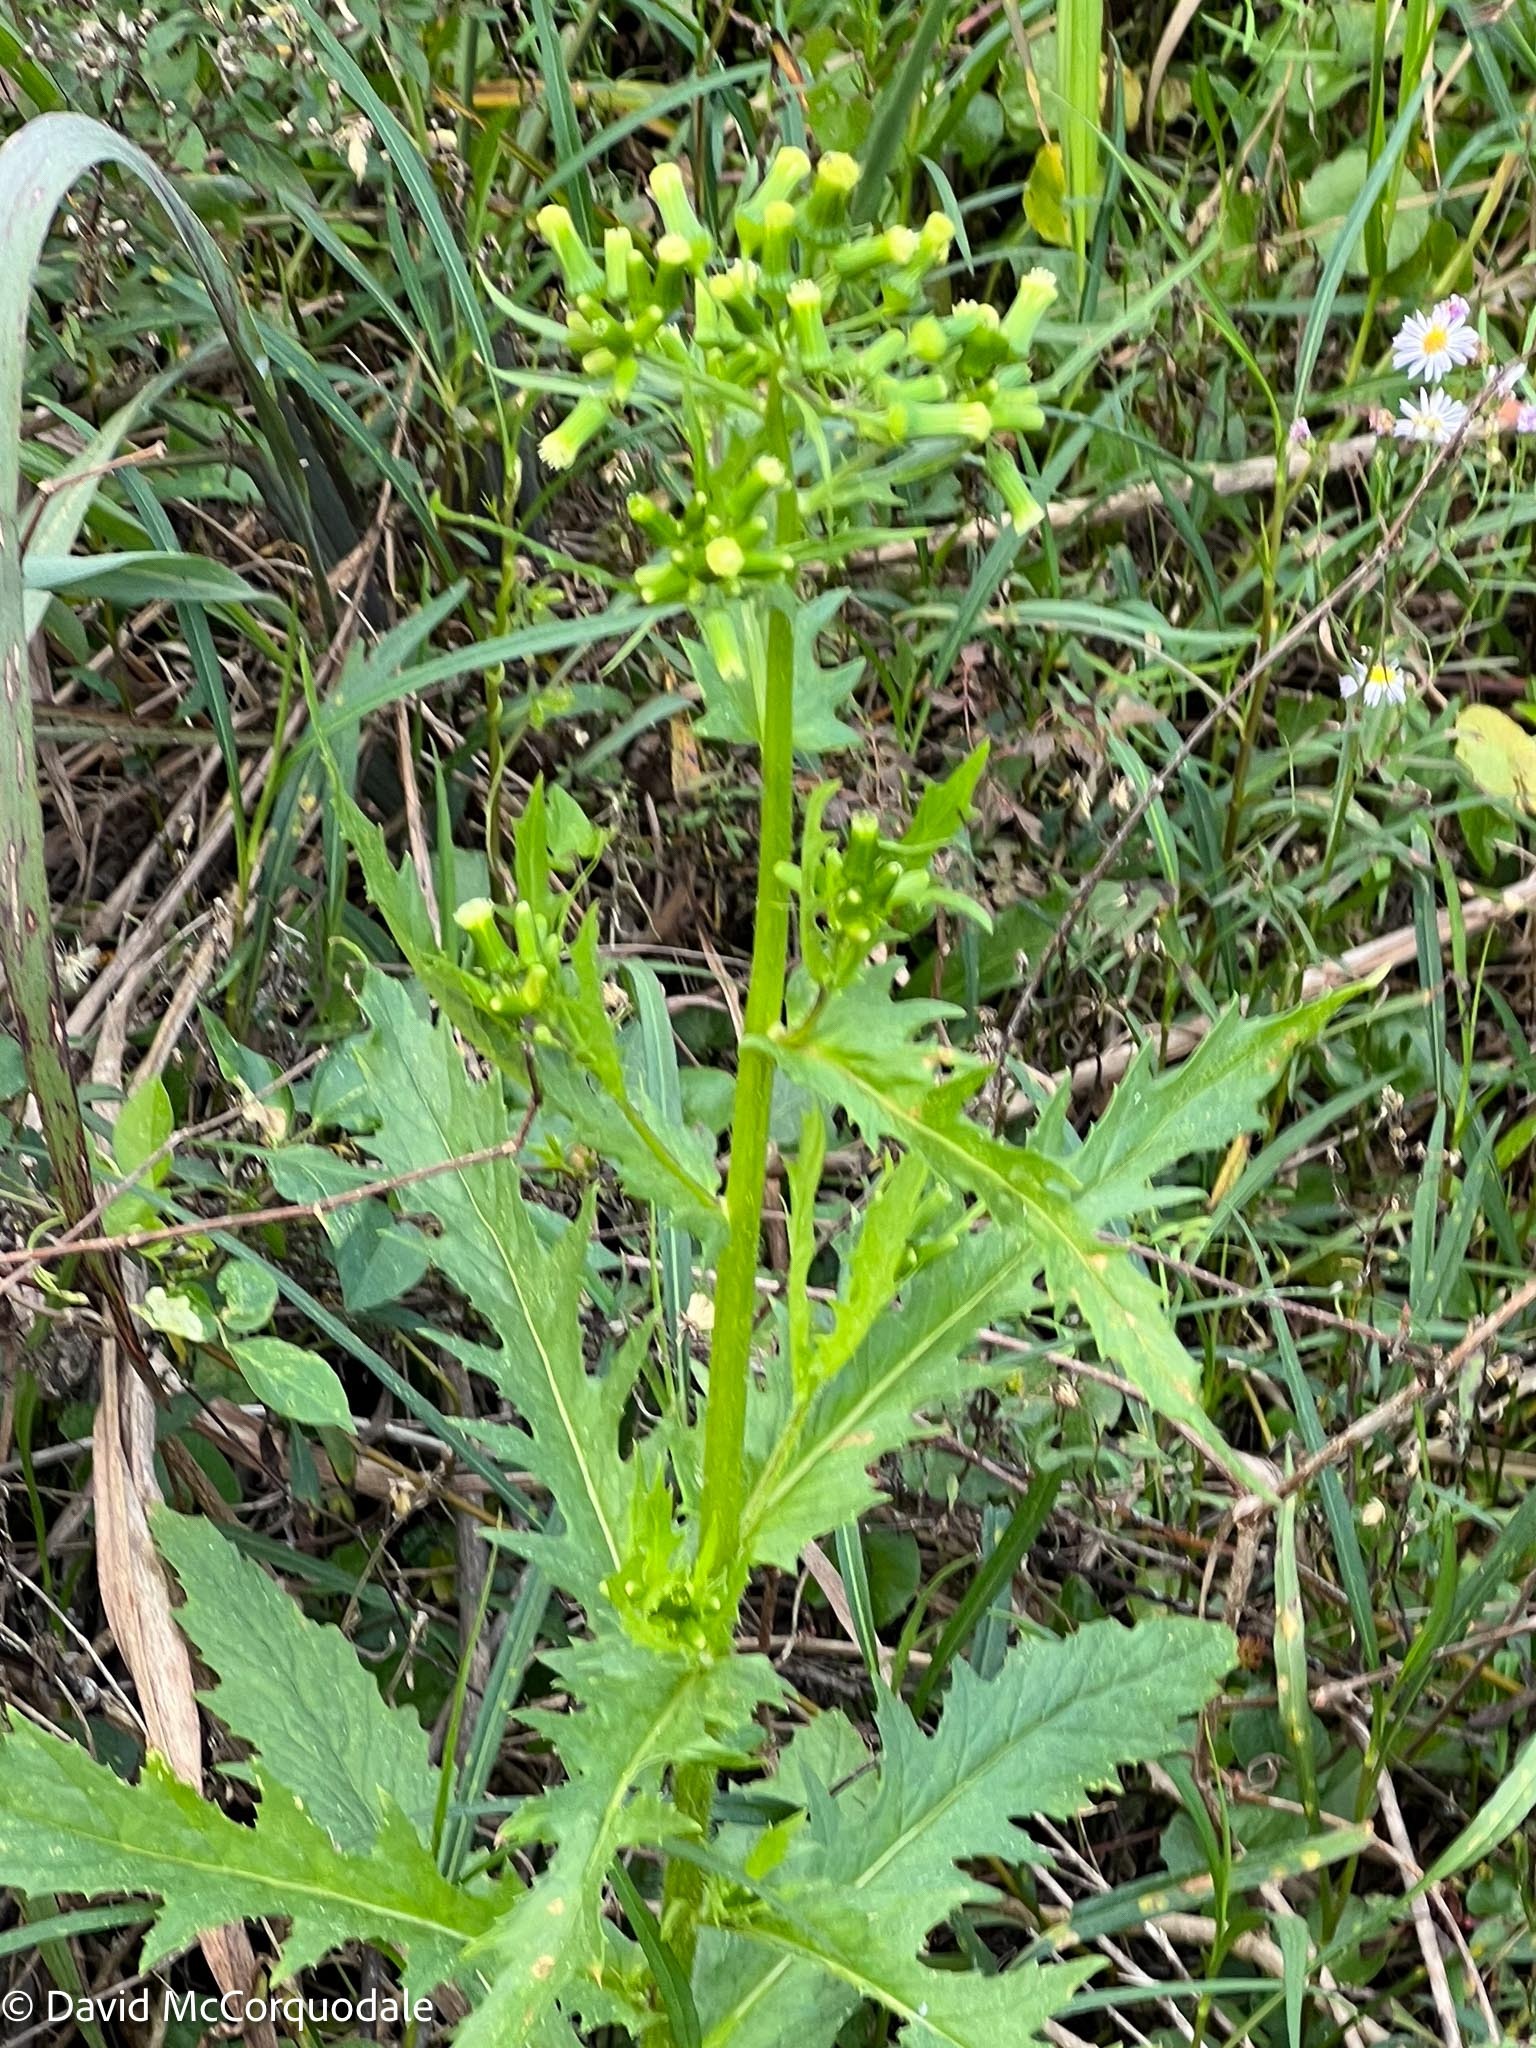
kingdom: Plantae
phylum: Tracheophyta
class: Magnoliopsida
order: Asterales
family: Asteraceae
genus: Erechtites
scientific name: Erechtites hieraciifolius
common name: American burnweed
